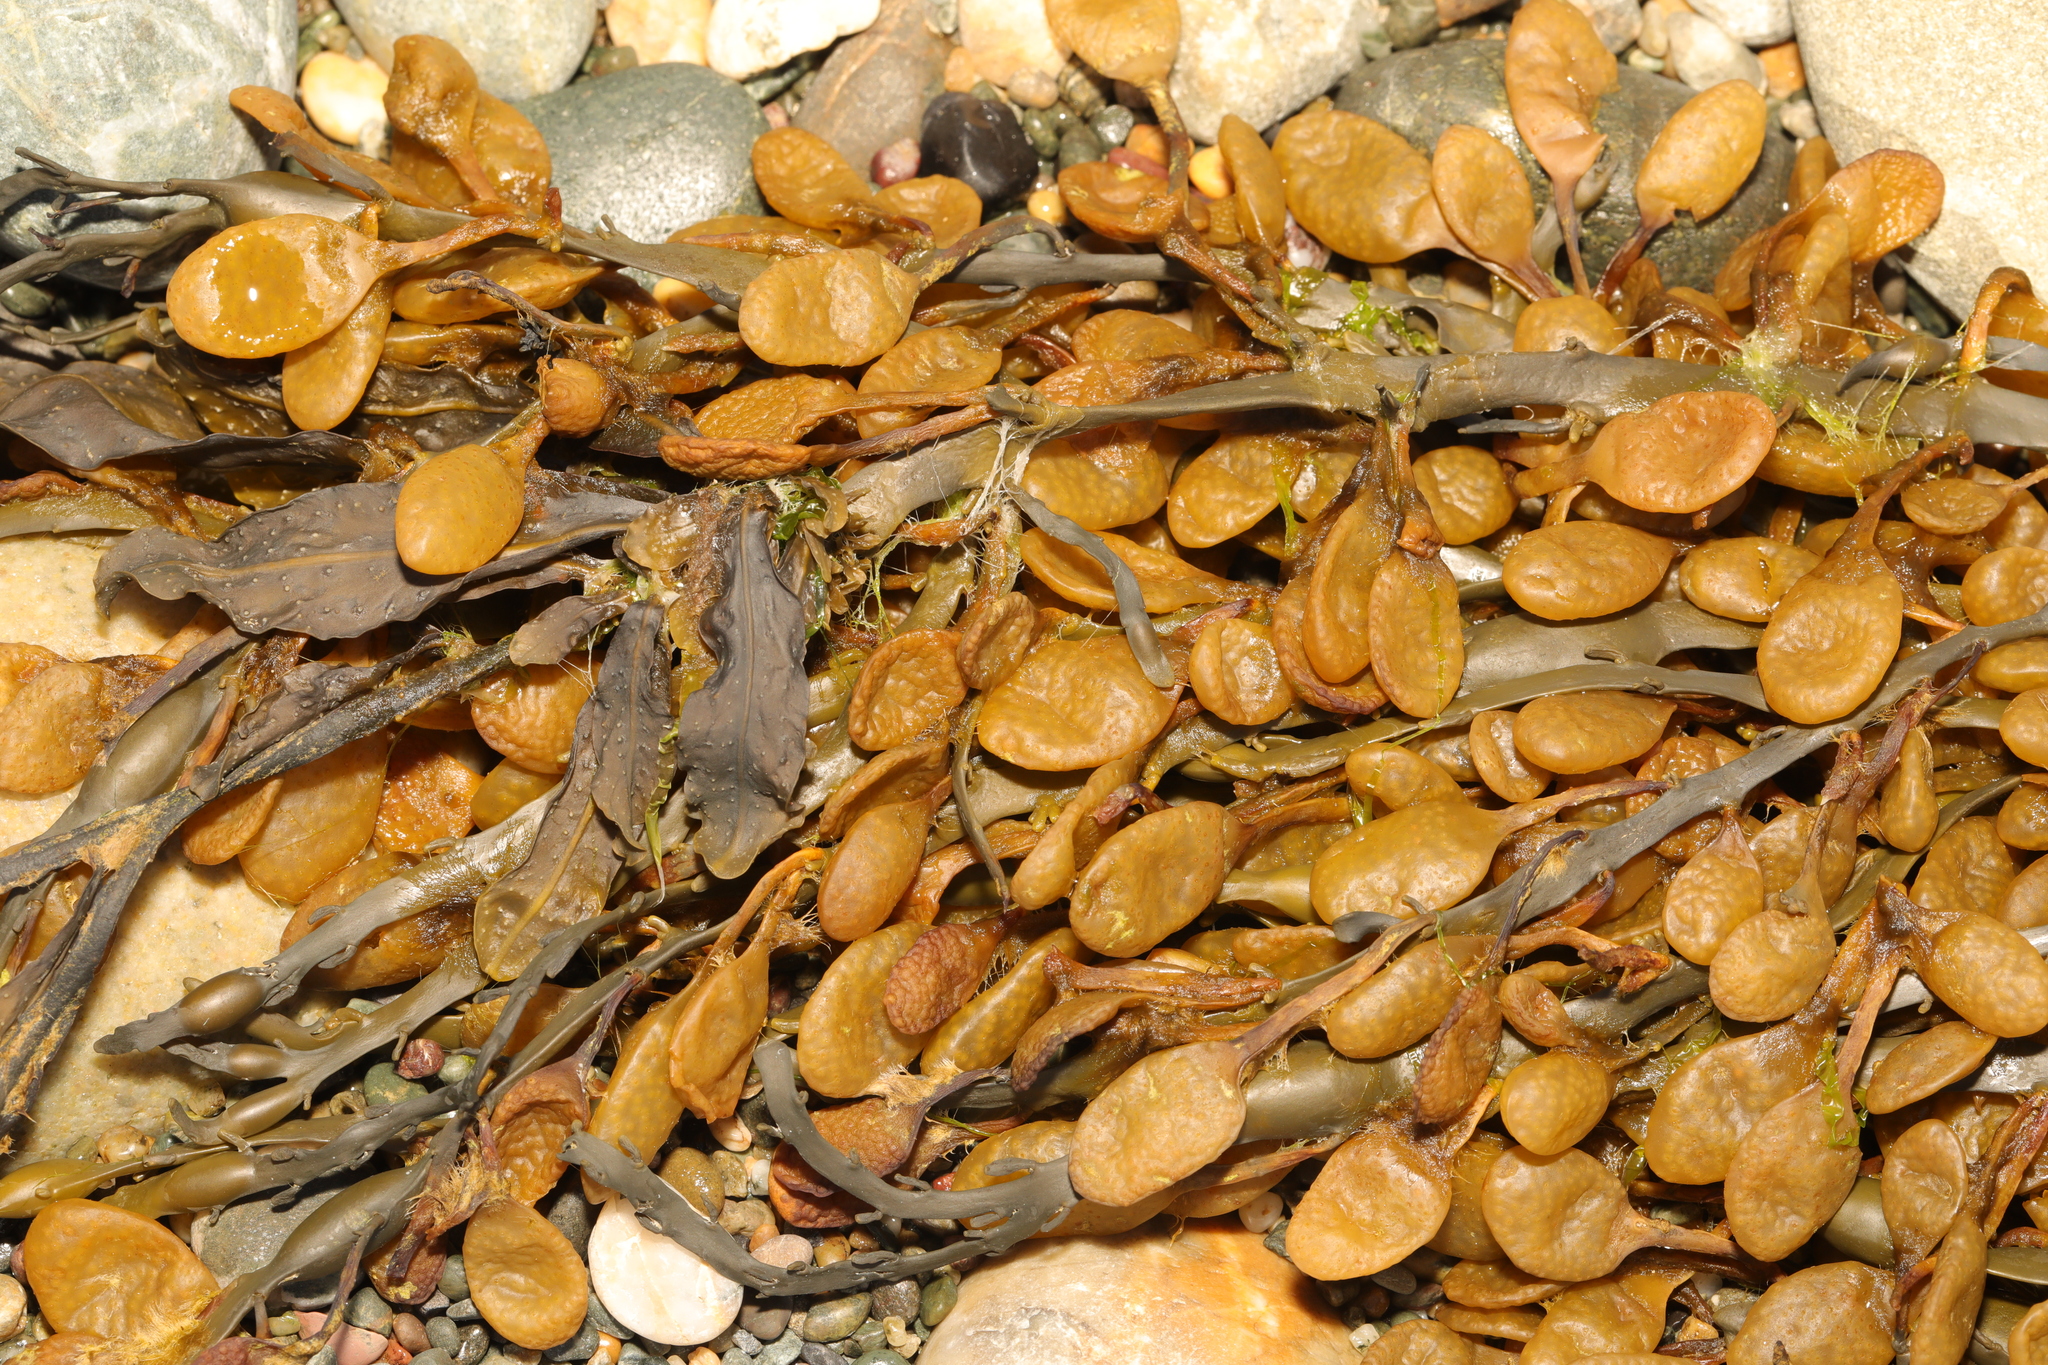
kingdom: Chromista
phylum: Ochrophyta
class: Phaeophyceae
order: Fucales
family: Fucaceae
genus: Ascophyllum
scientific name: Ascophyllum nodosum
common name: Knotted wrack
